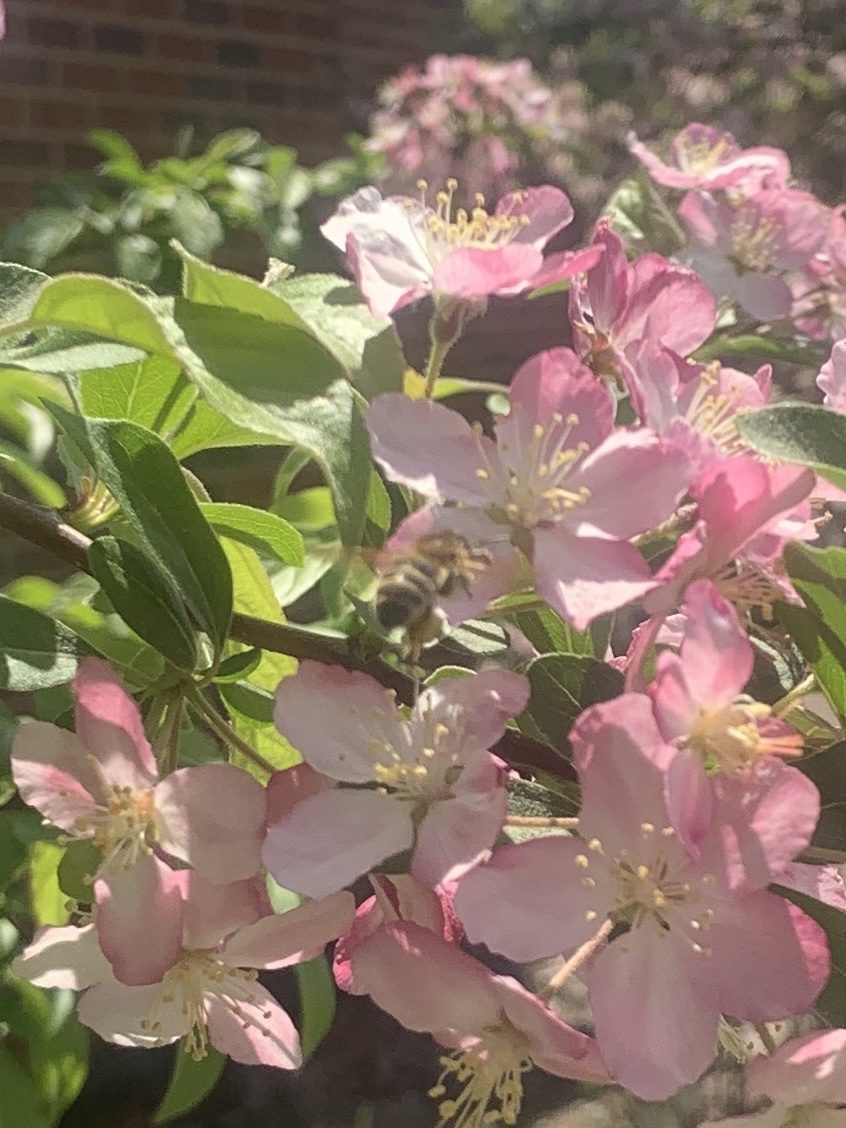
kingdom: Animalia
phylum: Arthropoda
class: Insecta
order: Hymenoptera
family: Apidae
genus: Apis
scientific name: Apis mellifera
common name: Honey bee
